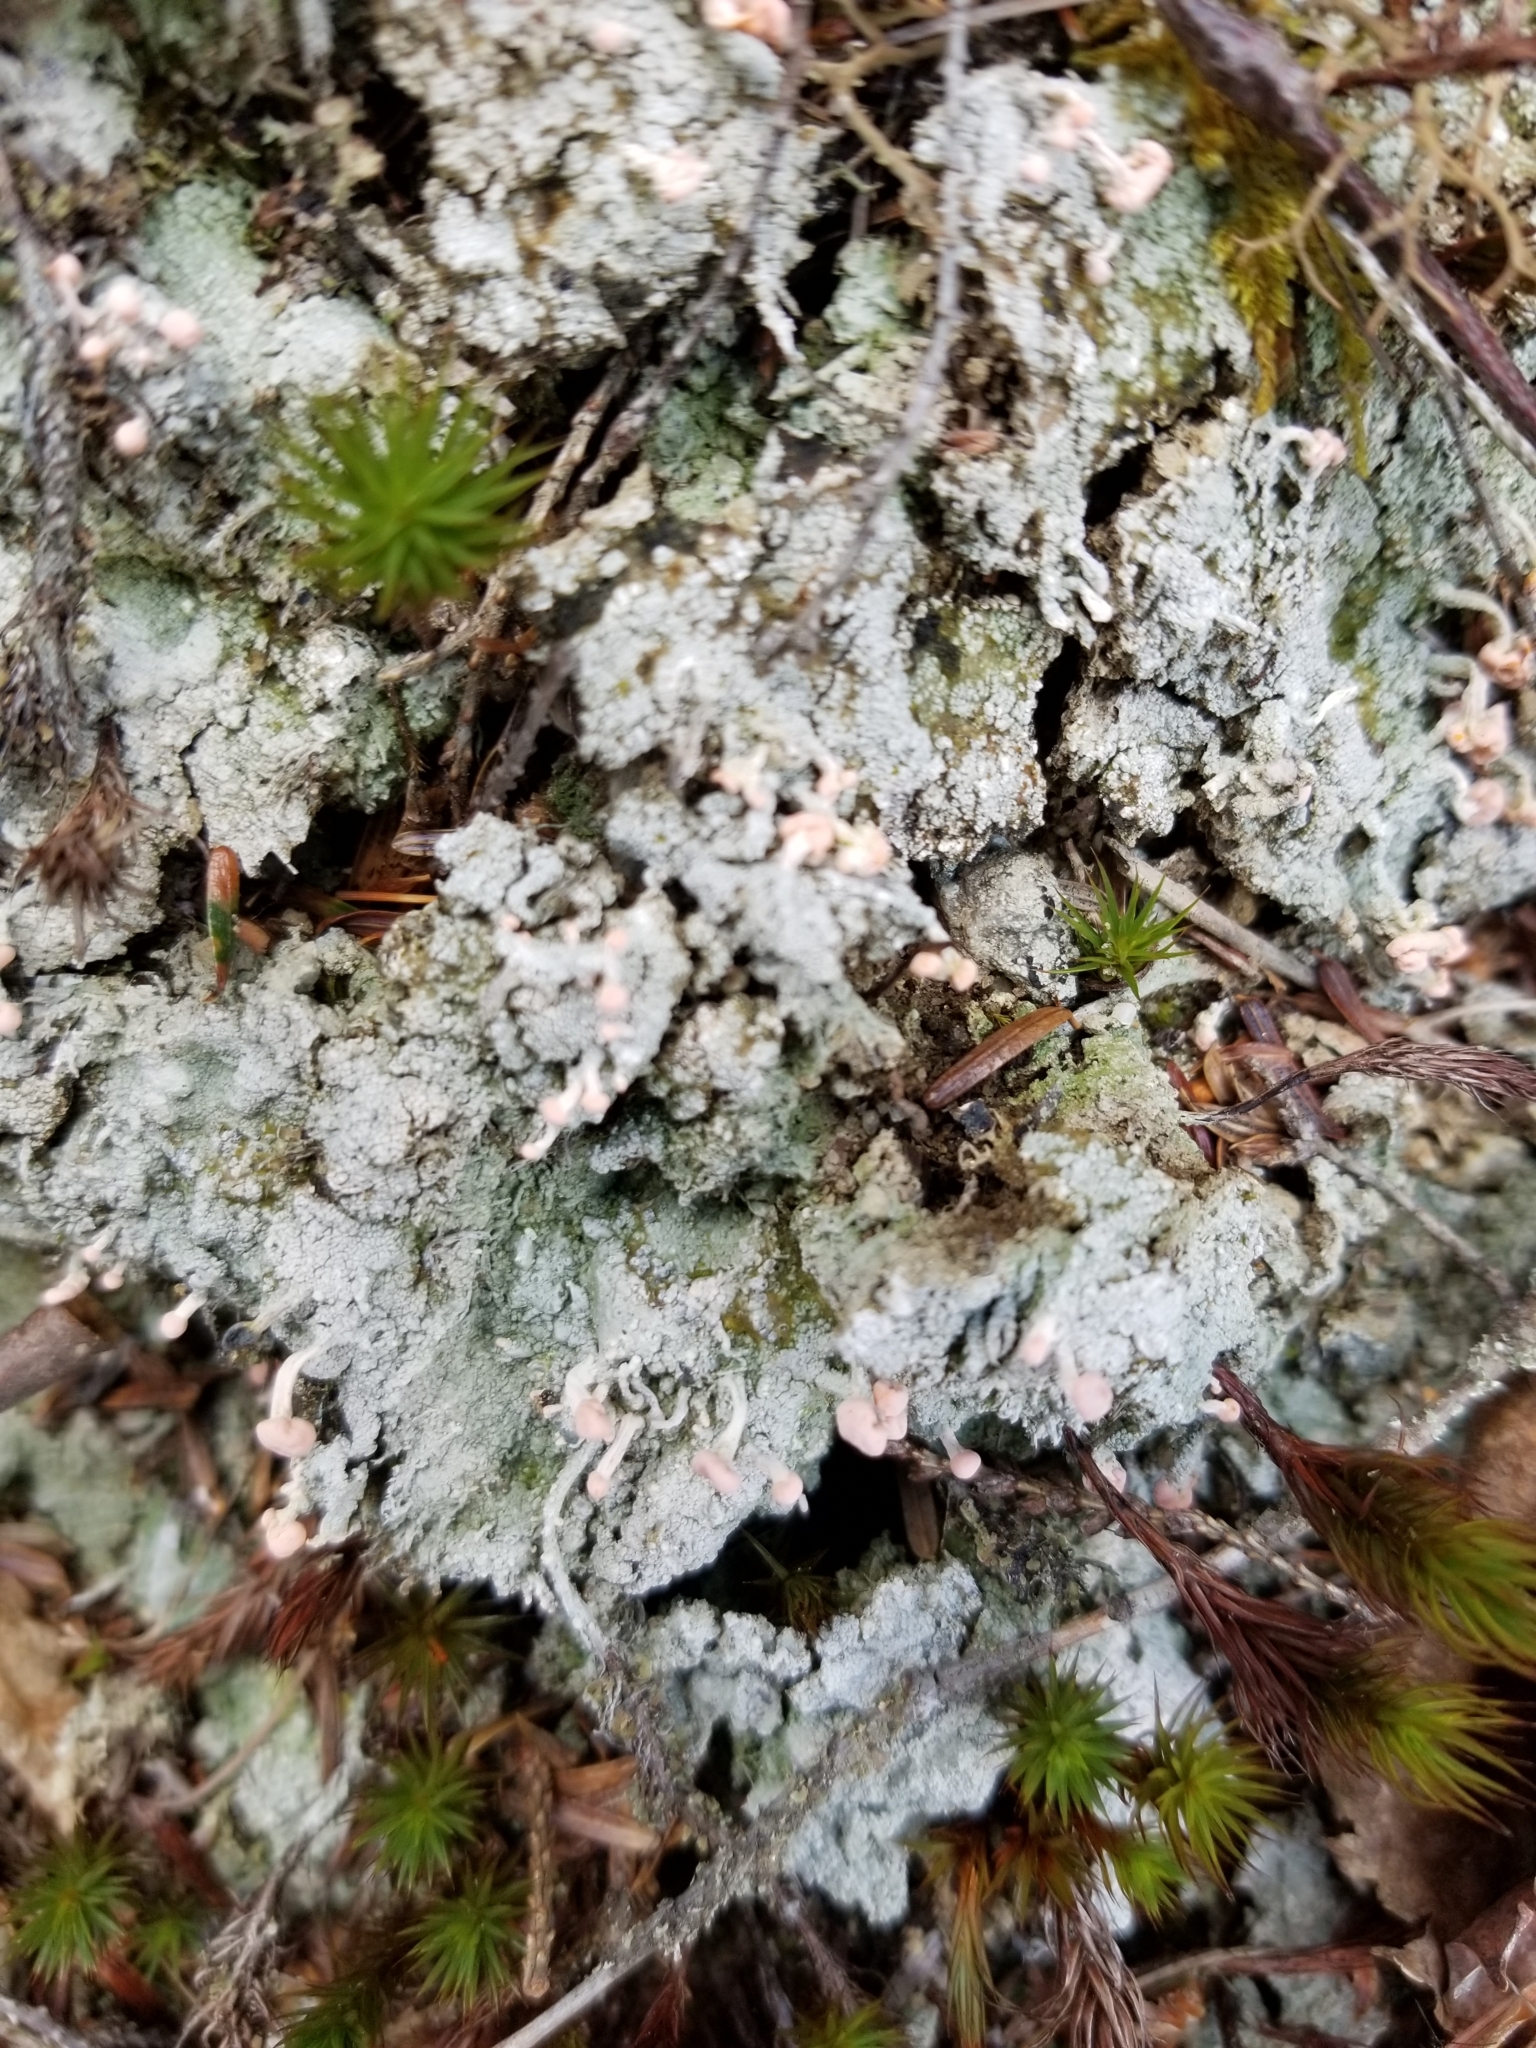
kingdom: Fungi
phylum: Ascomycota
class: Lecanoromycetes
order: Pertusariales
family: Icmadophilaceae
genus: Dibaeis
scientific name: Dibaeis baeomyces
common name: Pink earth lichen
